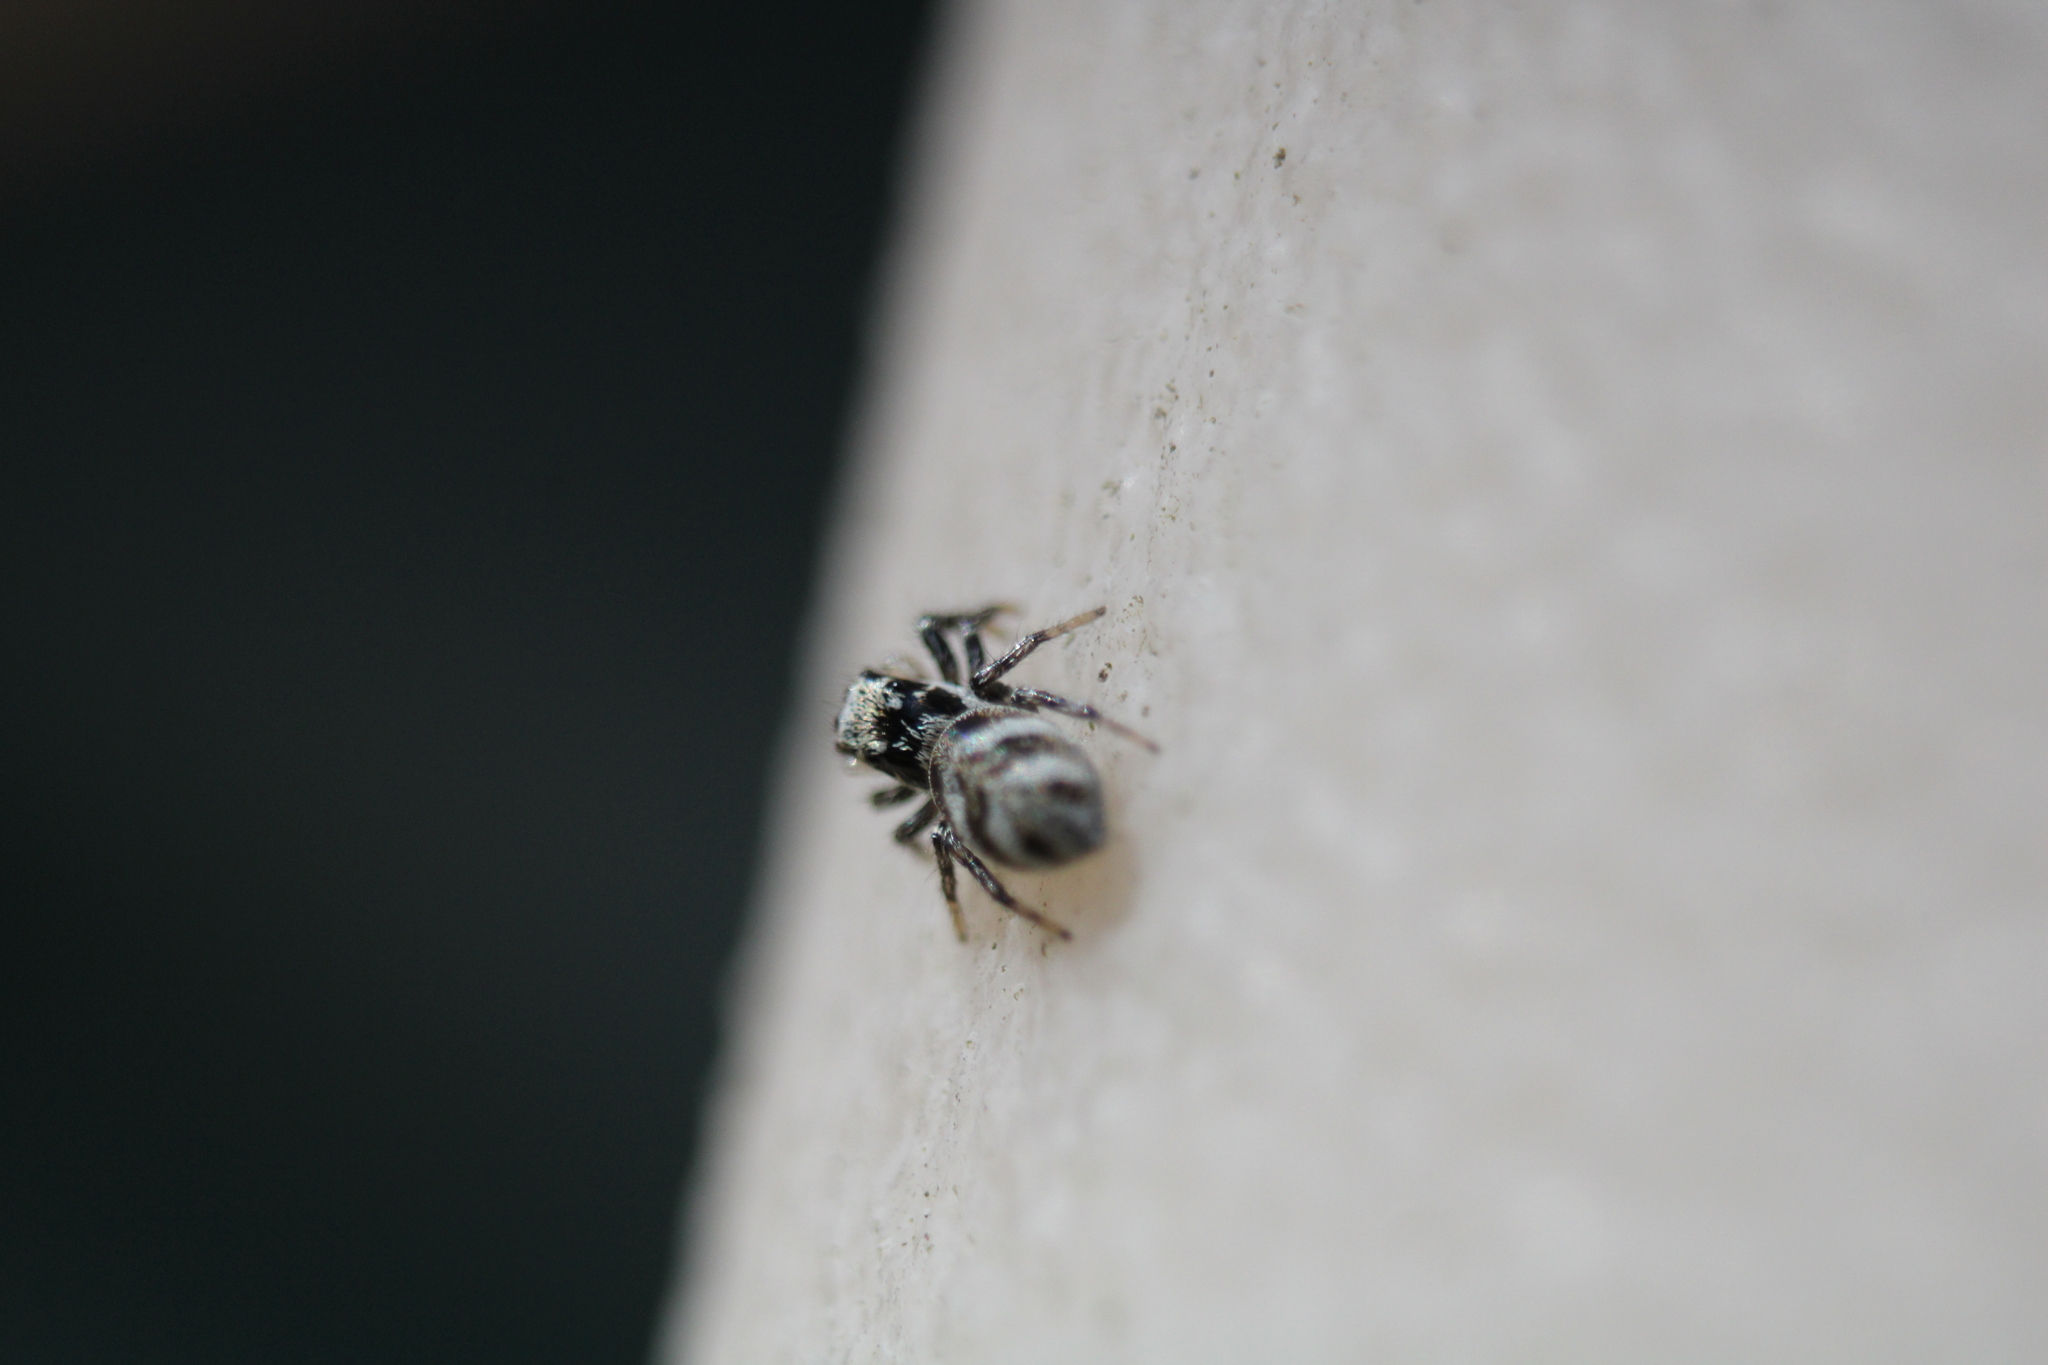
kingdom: Animalia
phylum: Arthropoda
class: Arachnida
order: Araneae
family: Salticidae
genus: Salticus
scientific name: Salticus scenicus
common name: Zebra jumper
